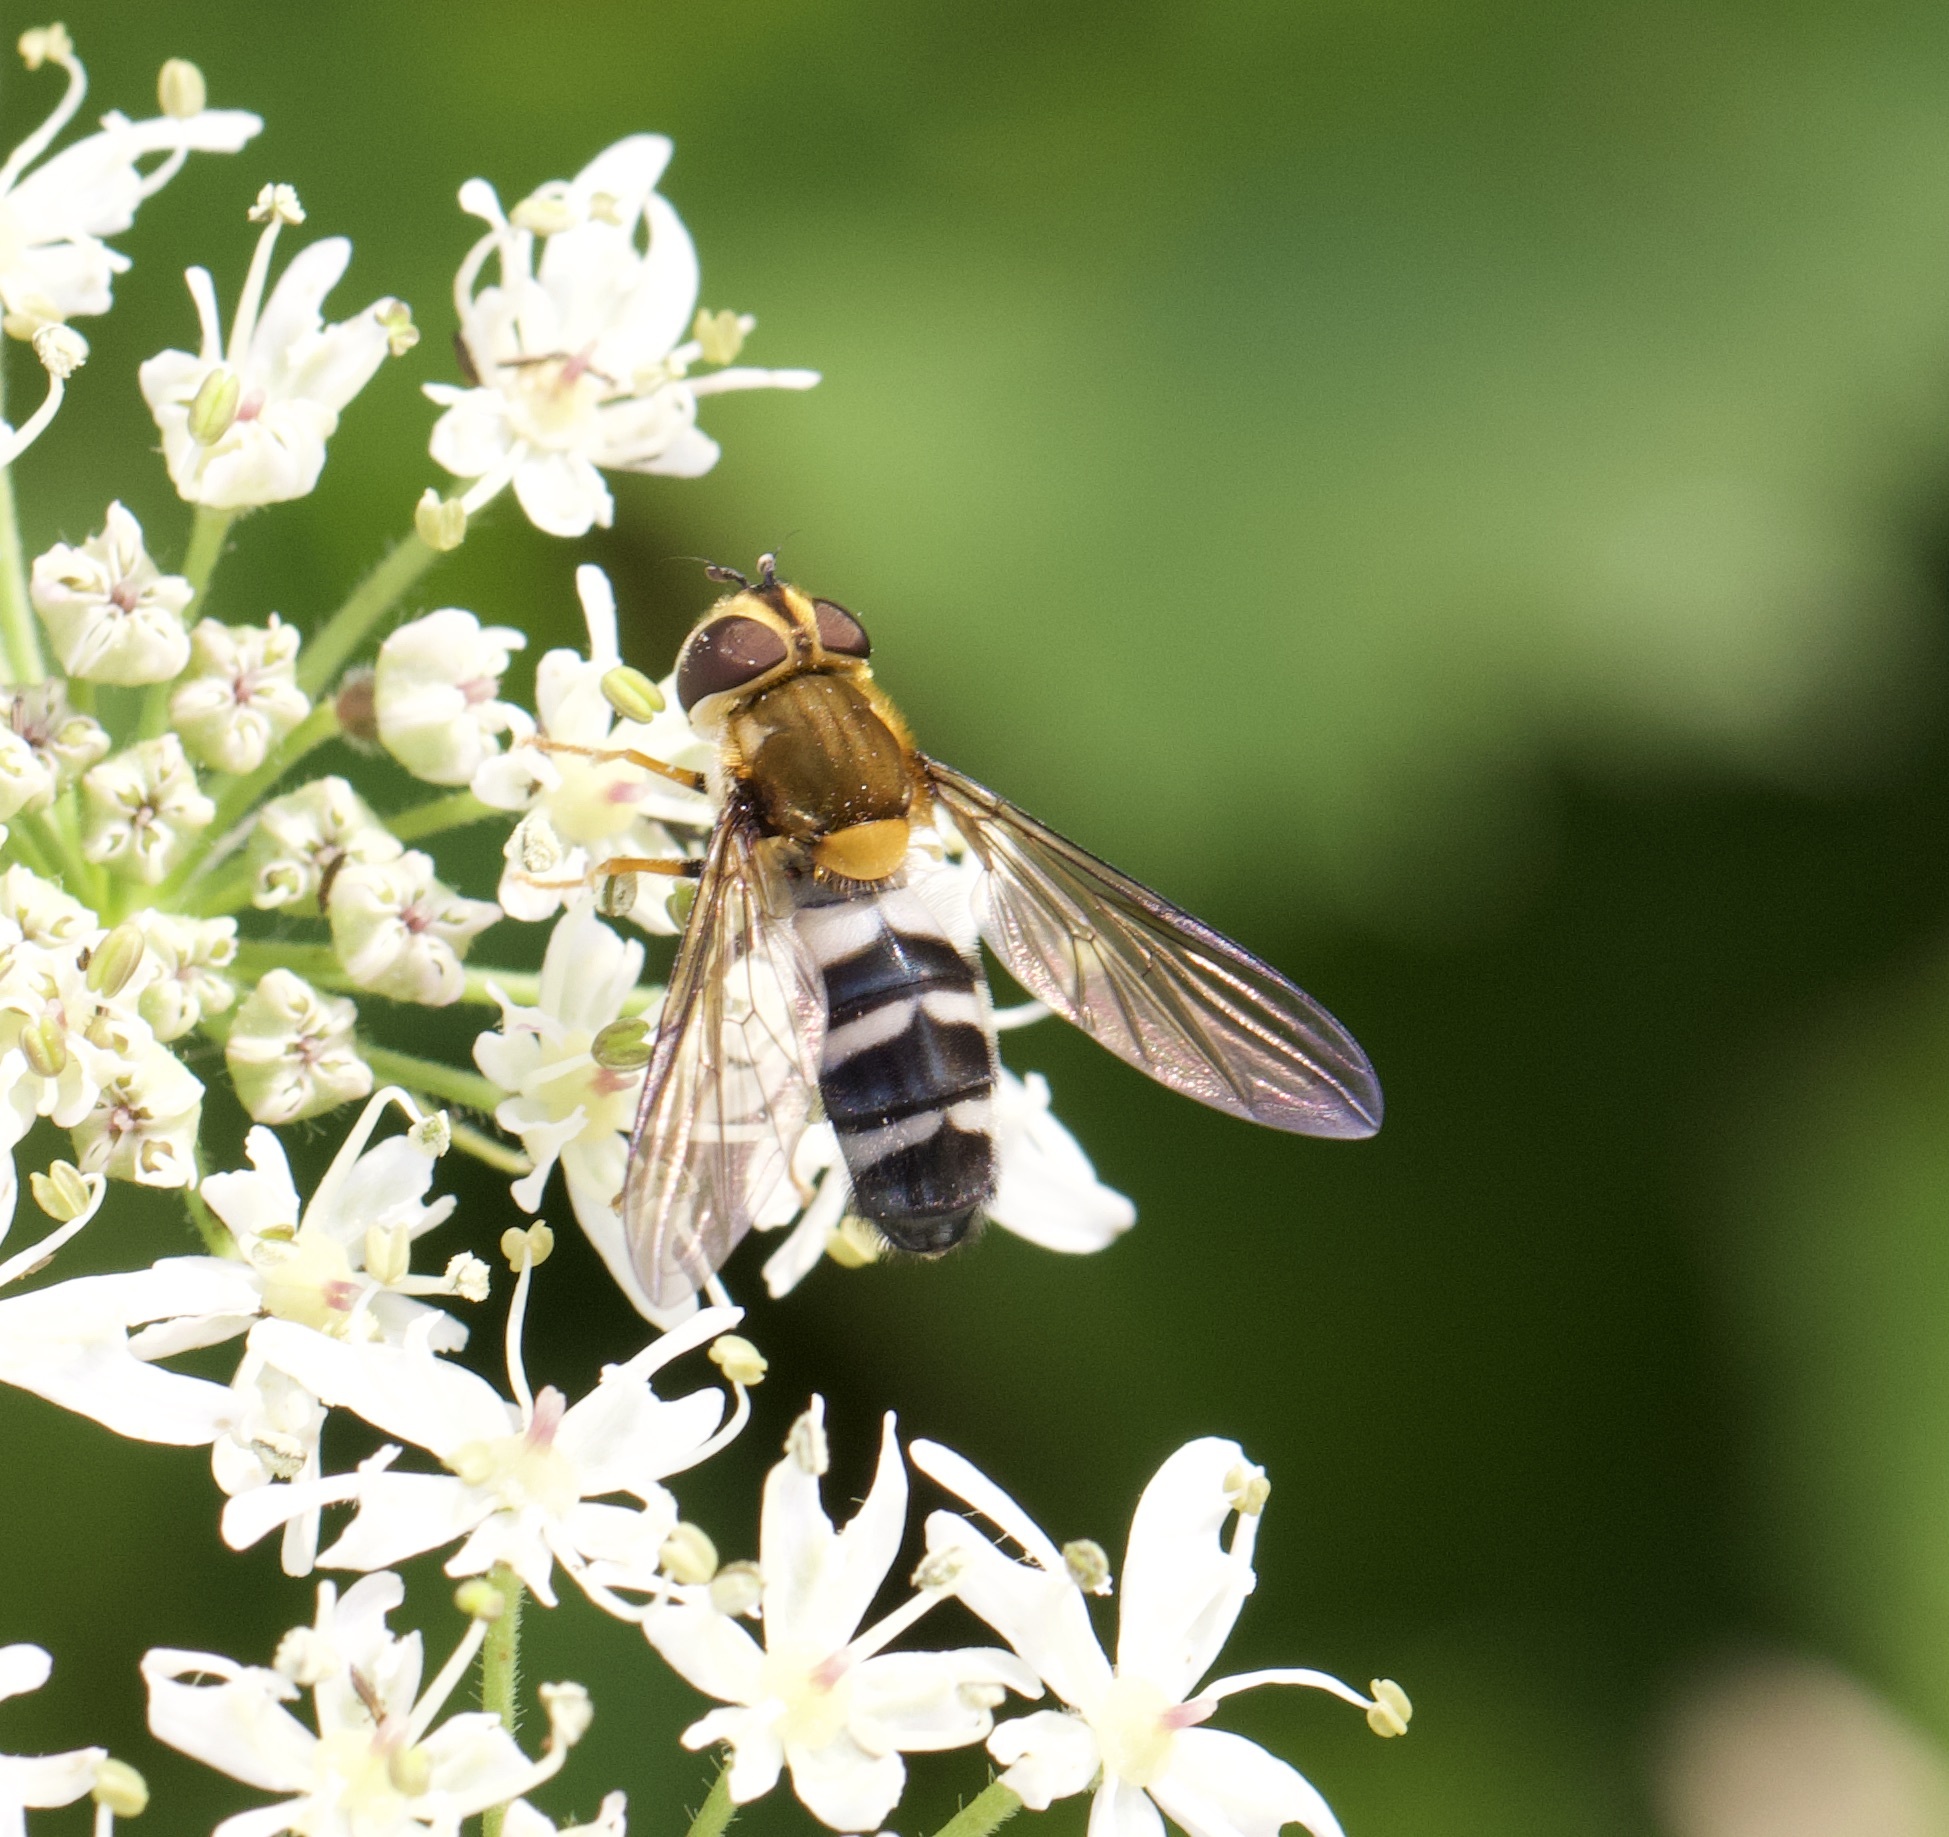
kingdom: Animalia
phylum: Arthropoda
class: Insecta
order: Diptera
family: Syrphidae
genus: Leucozona
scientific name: Leucozona glaucia
